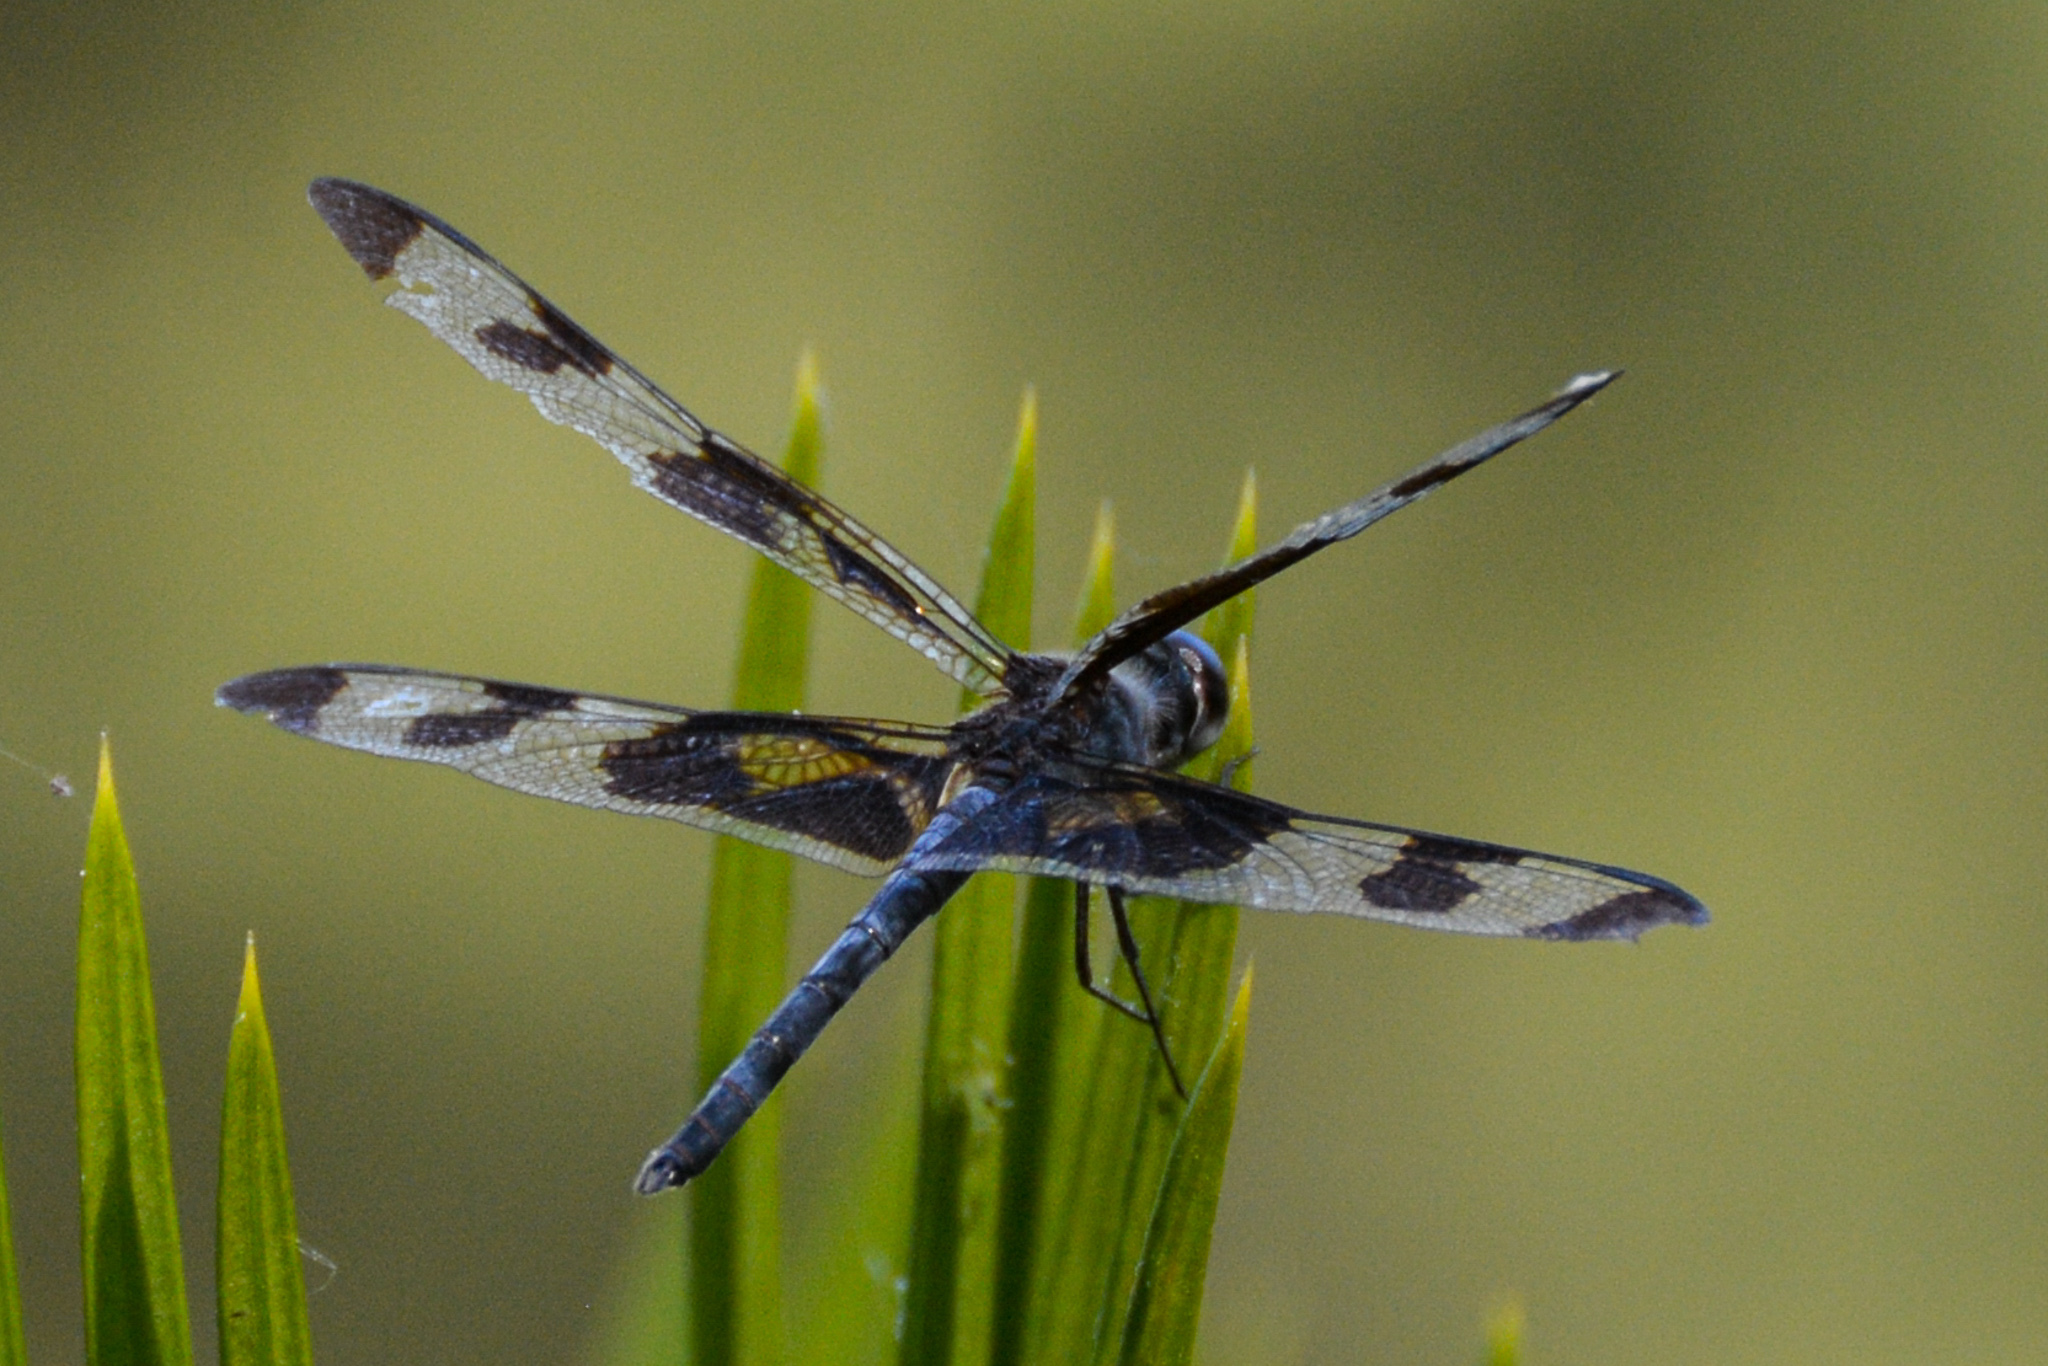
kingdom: Animalia
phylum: Arthropoda
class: Insecta
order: Odonata
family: Libellulidae
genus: Celithemis
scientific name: Celithemis fasciata
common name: Banded pennant
